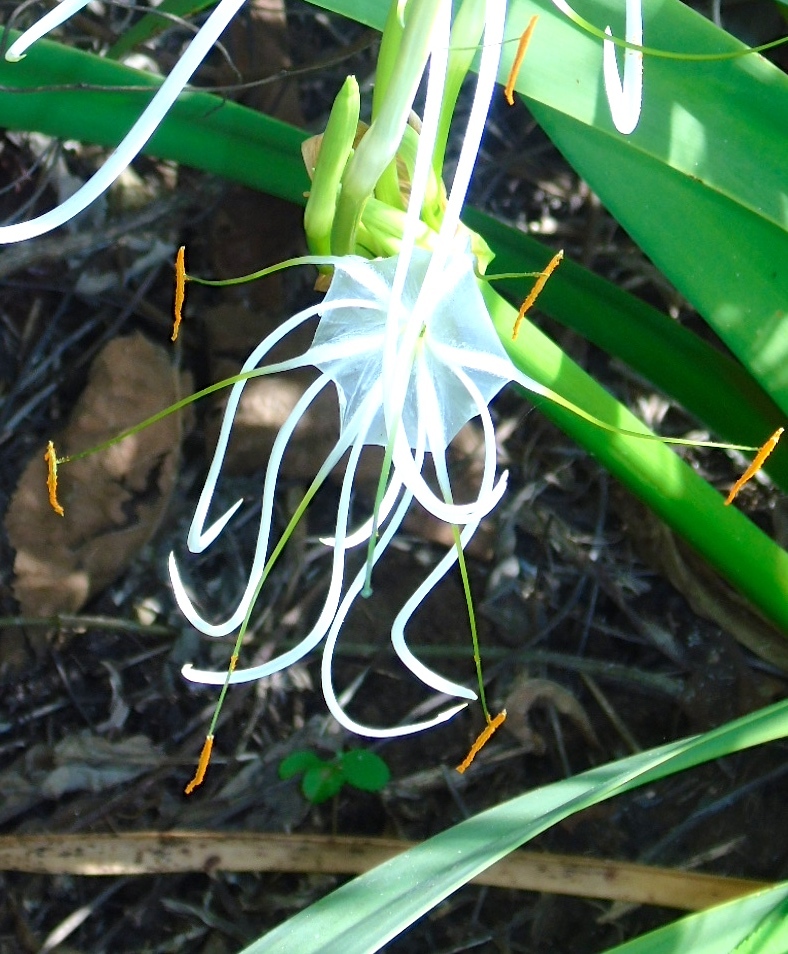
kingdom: Plantae
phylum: Tracheophyta
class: Liliopsida
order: Asparagales
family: Amaryllidaceae
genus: Hymenocallis
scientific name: Hymenocallis littoralis
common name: Beach spiderlily
